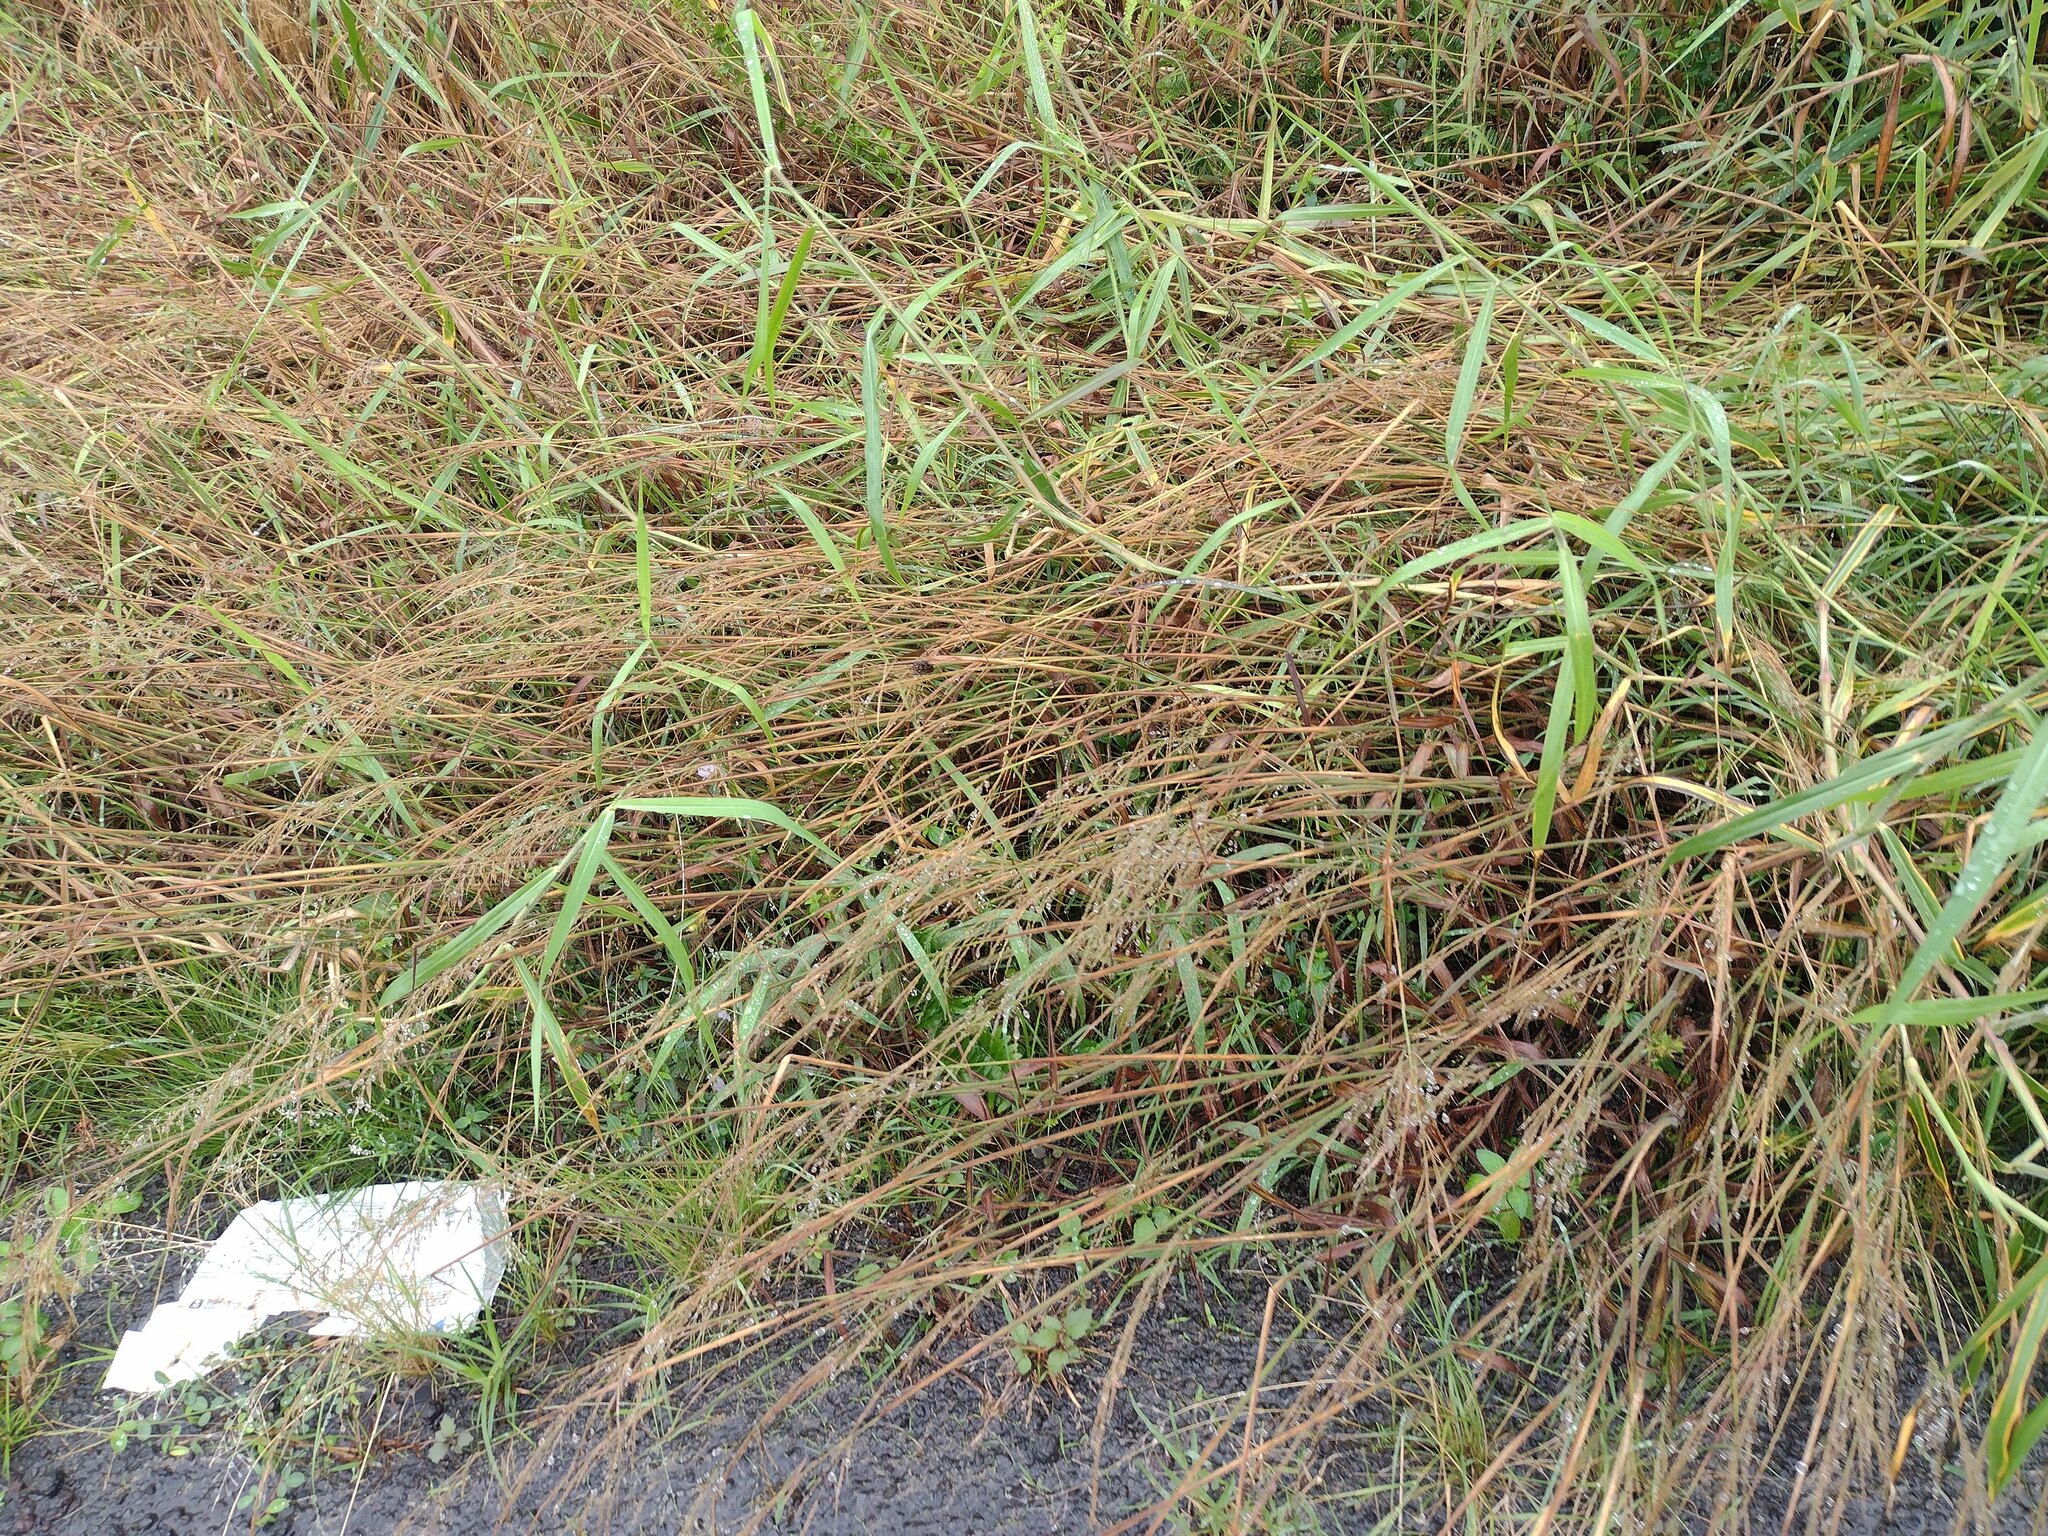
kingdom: Plantae
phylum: Tracheophyta
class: Liliopsida
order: Poales
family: Poaceae
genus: Melinis
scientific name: Melinis minutiflora
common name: Molassesgrass
